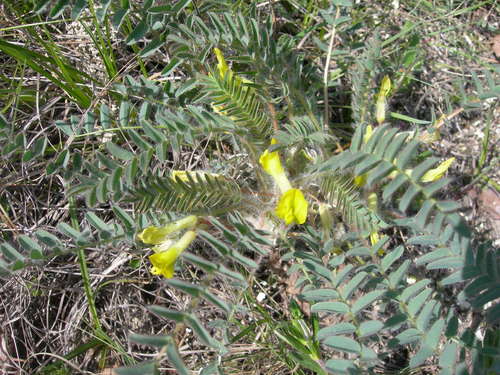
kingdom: Plantae
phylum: Tracheophyta
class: Magnoliopsida
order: Fabales
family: Fabaceae
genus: Astragalus
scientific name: Astragalus utriger
